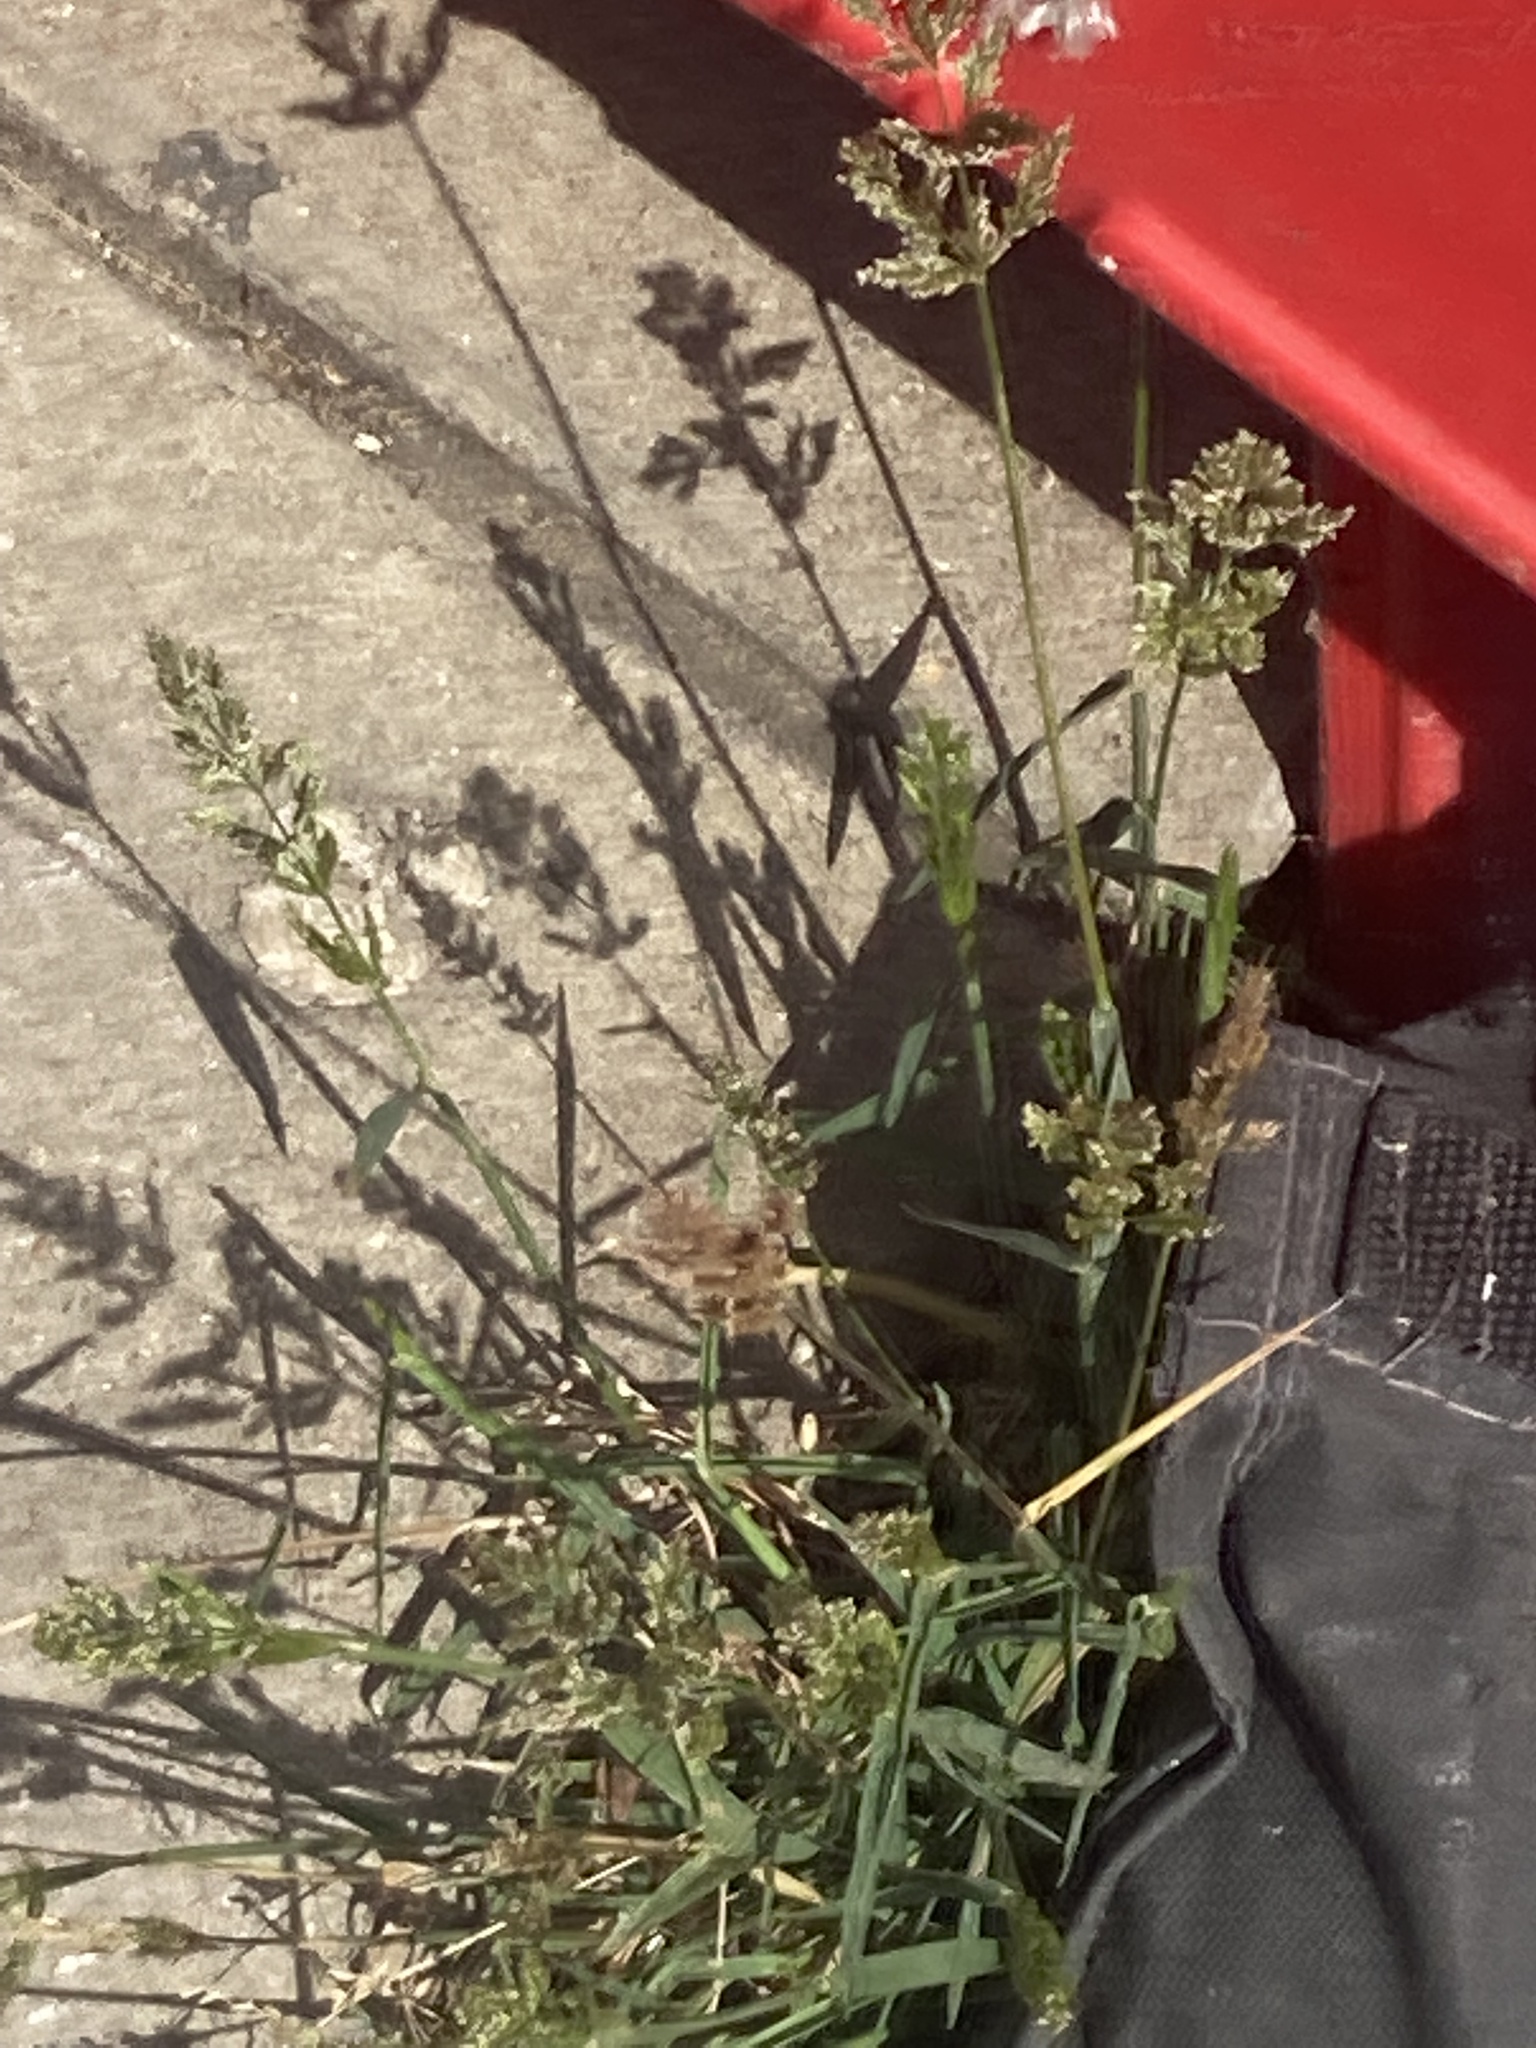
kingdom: Plantae
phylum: Tracheophyta
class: Liliopsida
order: Poales
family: Poaceae
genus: Polypogon
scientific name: Polypogon viridis
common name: Water bent
